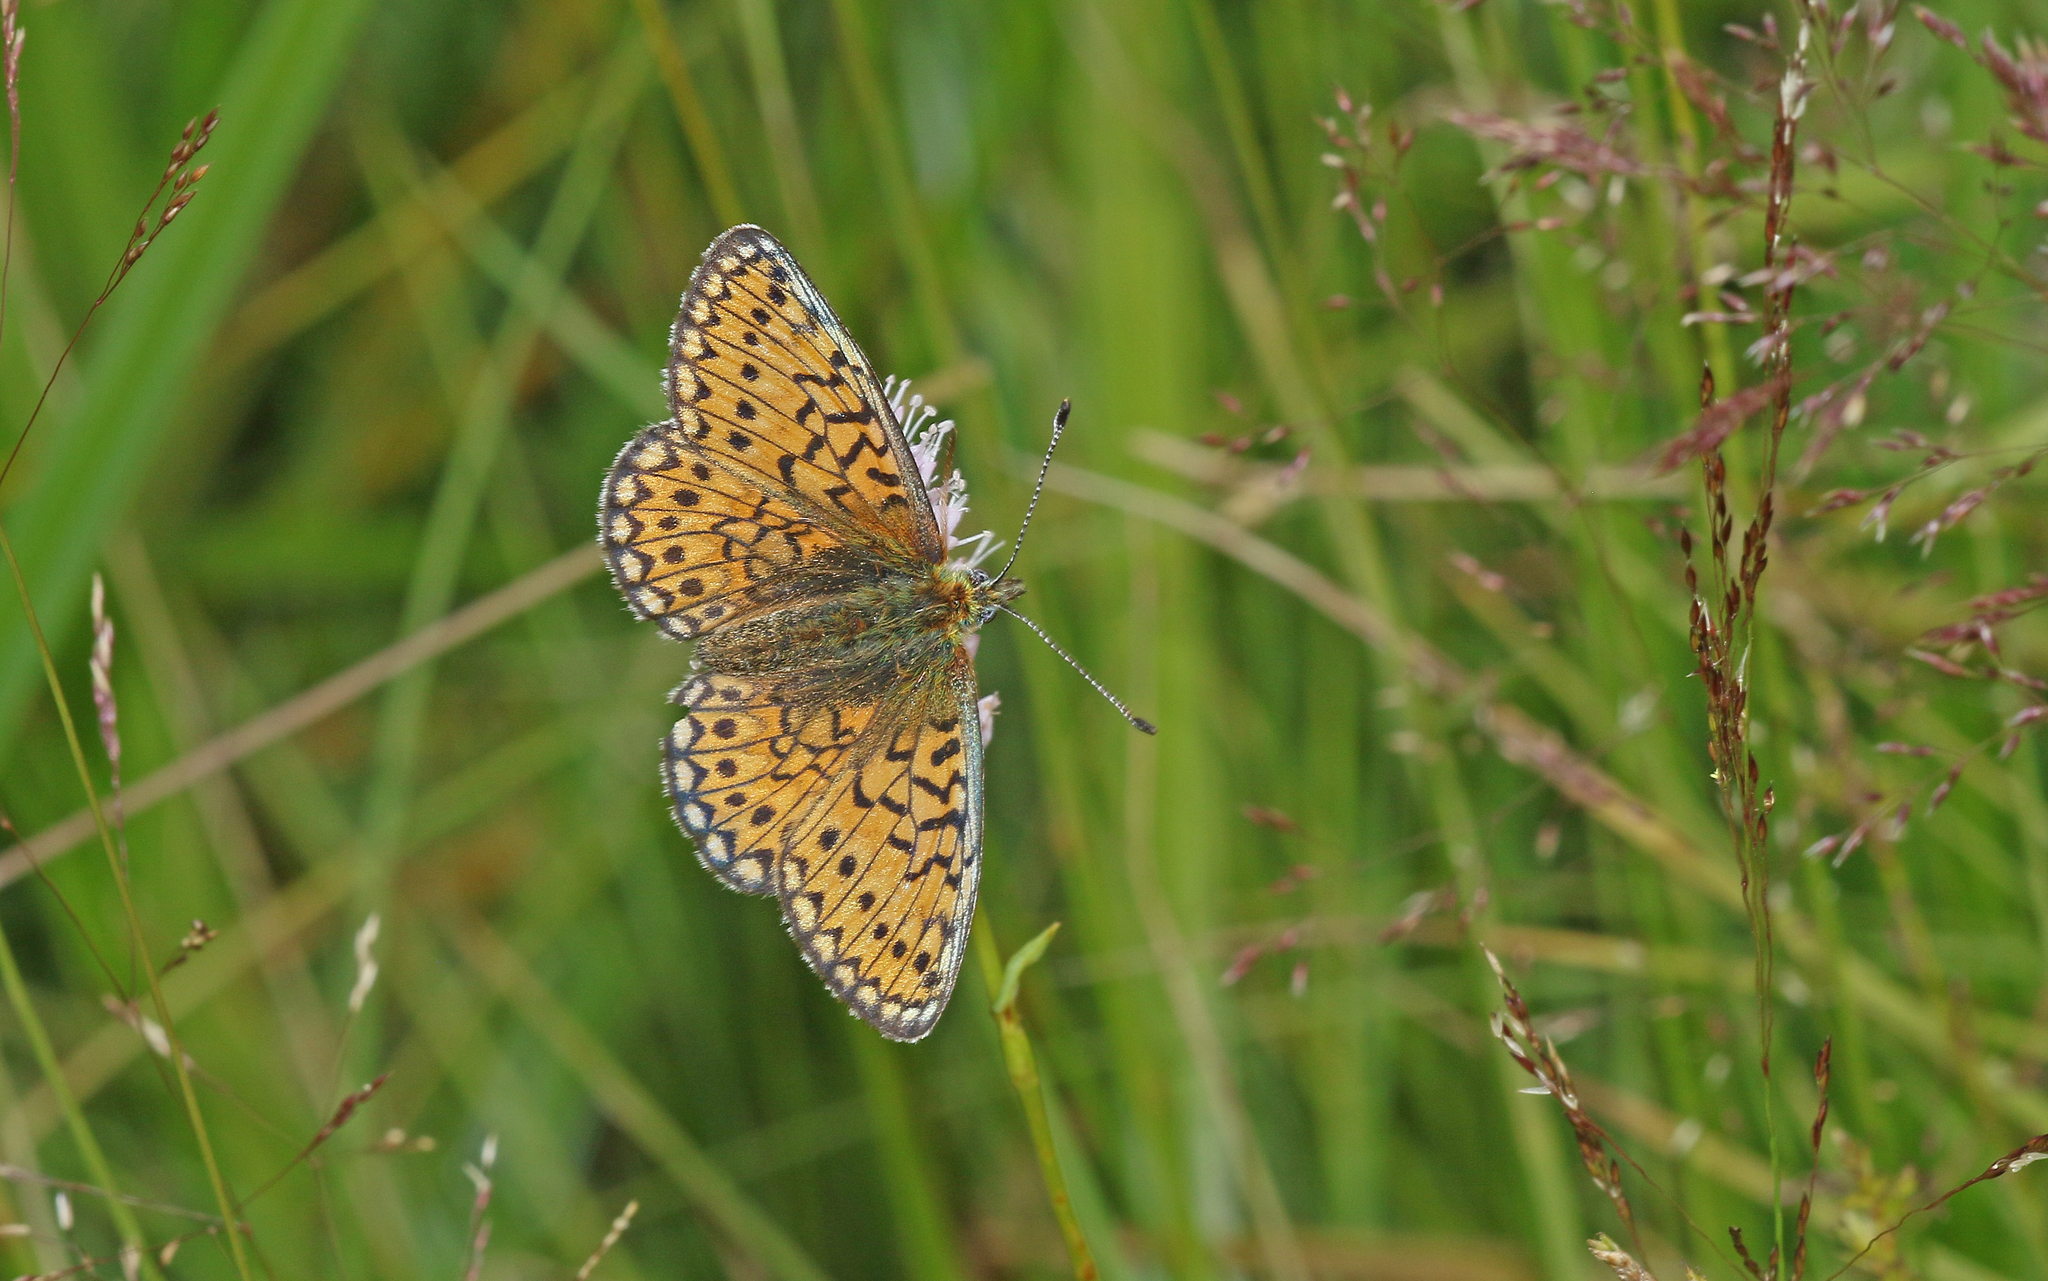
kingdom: Animalia
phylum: Arthropoda
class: Insecta
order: Lepidoptera
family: Nymphalidae
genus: Boloria
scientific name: Boloria eunomia
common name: Bog fritillary
